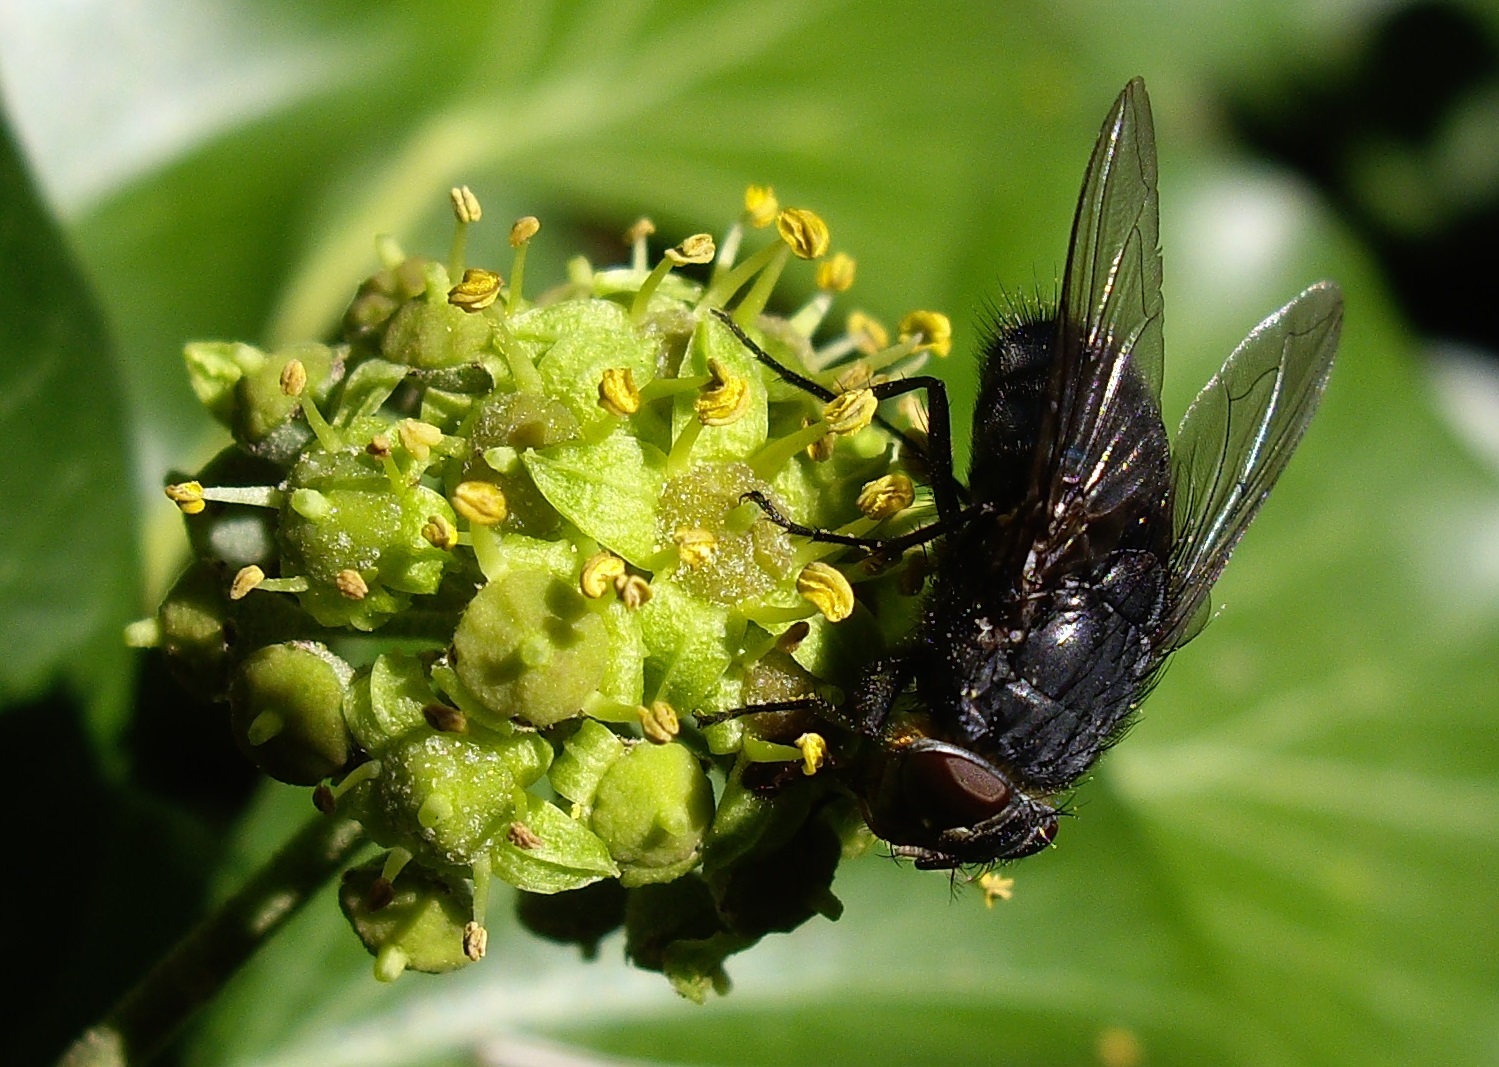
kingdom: Animalia
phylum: Arthropoda
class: Insecta
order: Diptera
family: Calliphoridae
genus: Calliphora
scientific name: Calliphora vomitoria
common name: Blue bottle fly
